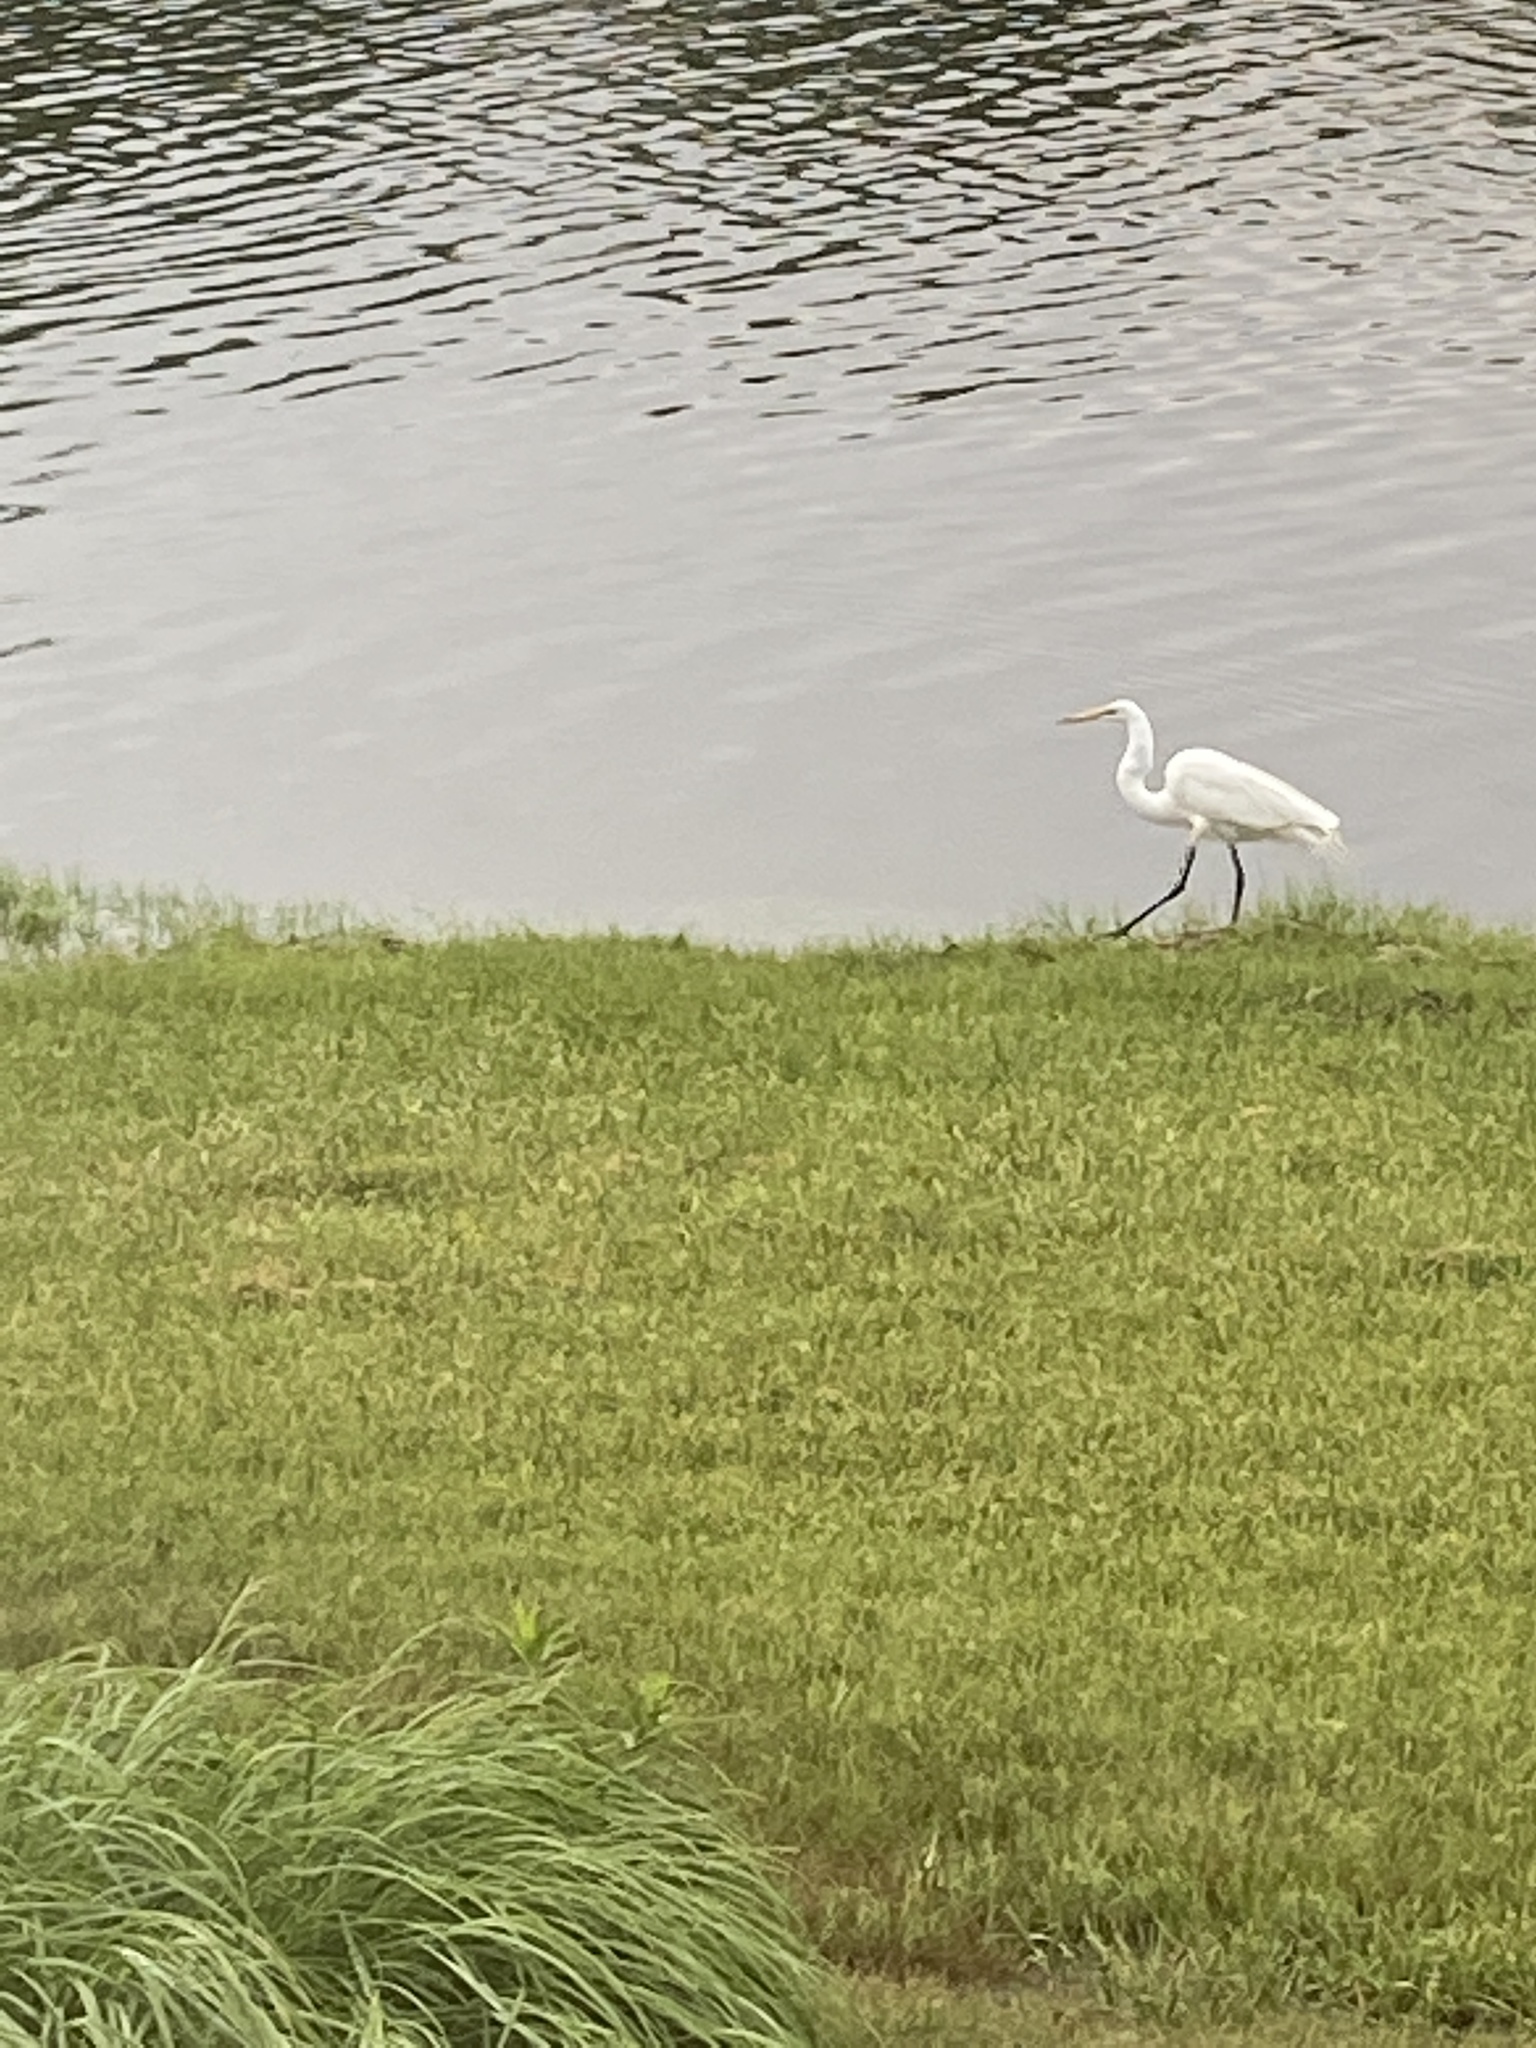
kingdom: Animalia
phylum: Chordata
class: Aves
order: Pelecaniformes
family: Ardeidae
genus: Ardea
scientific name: Ardea alba
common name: Great egret
